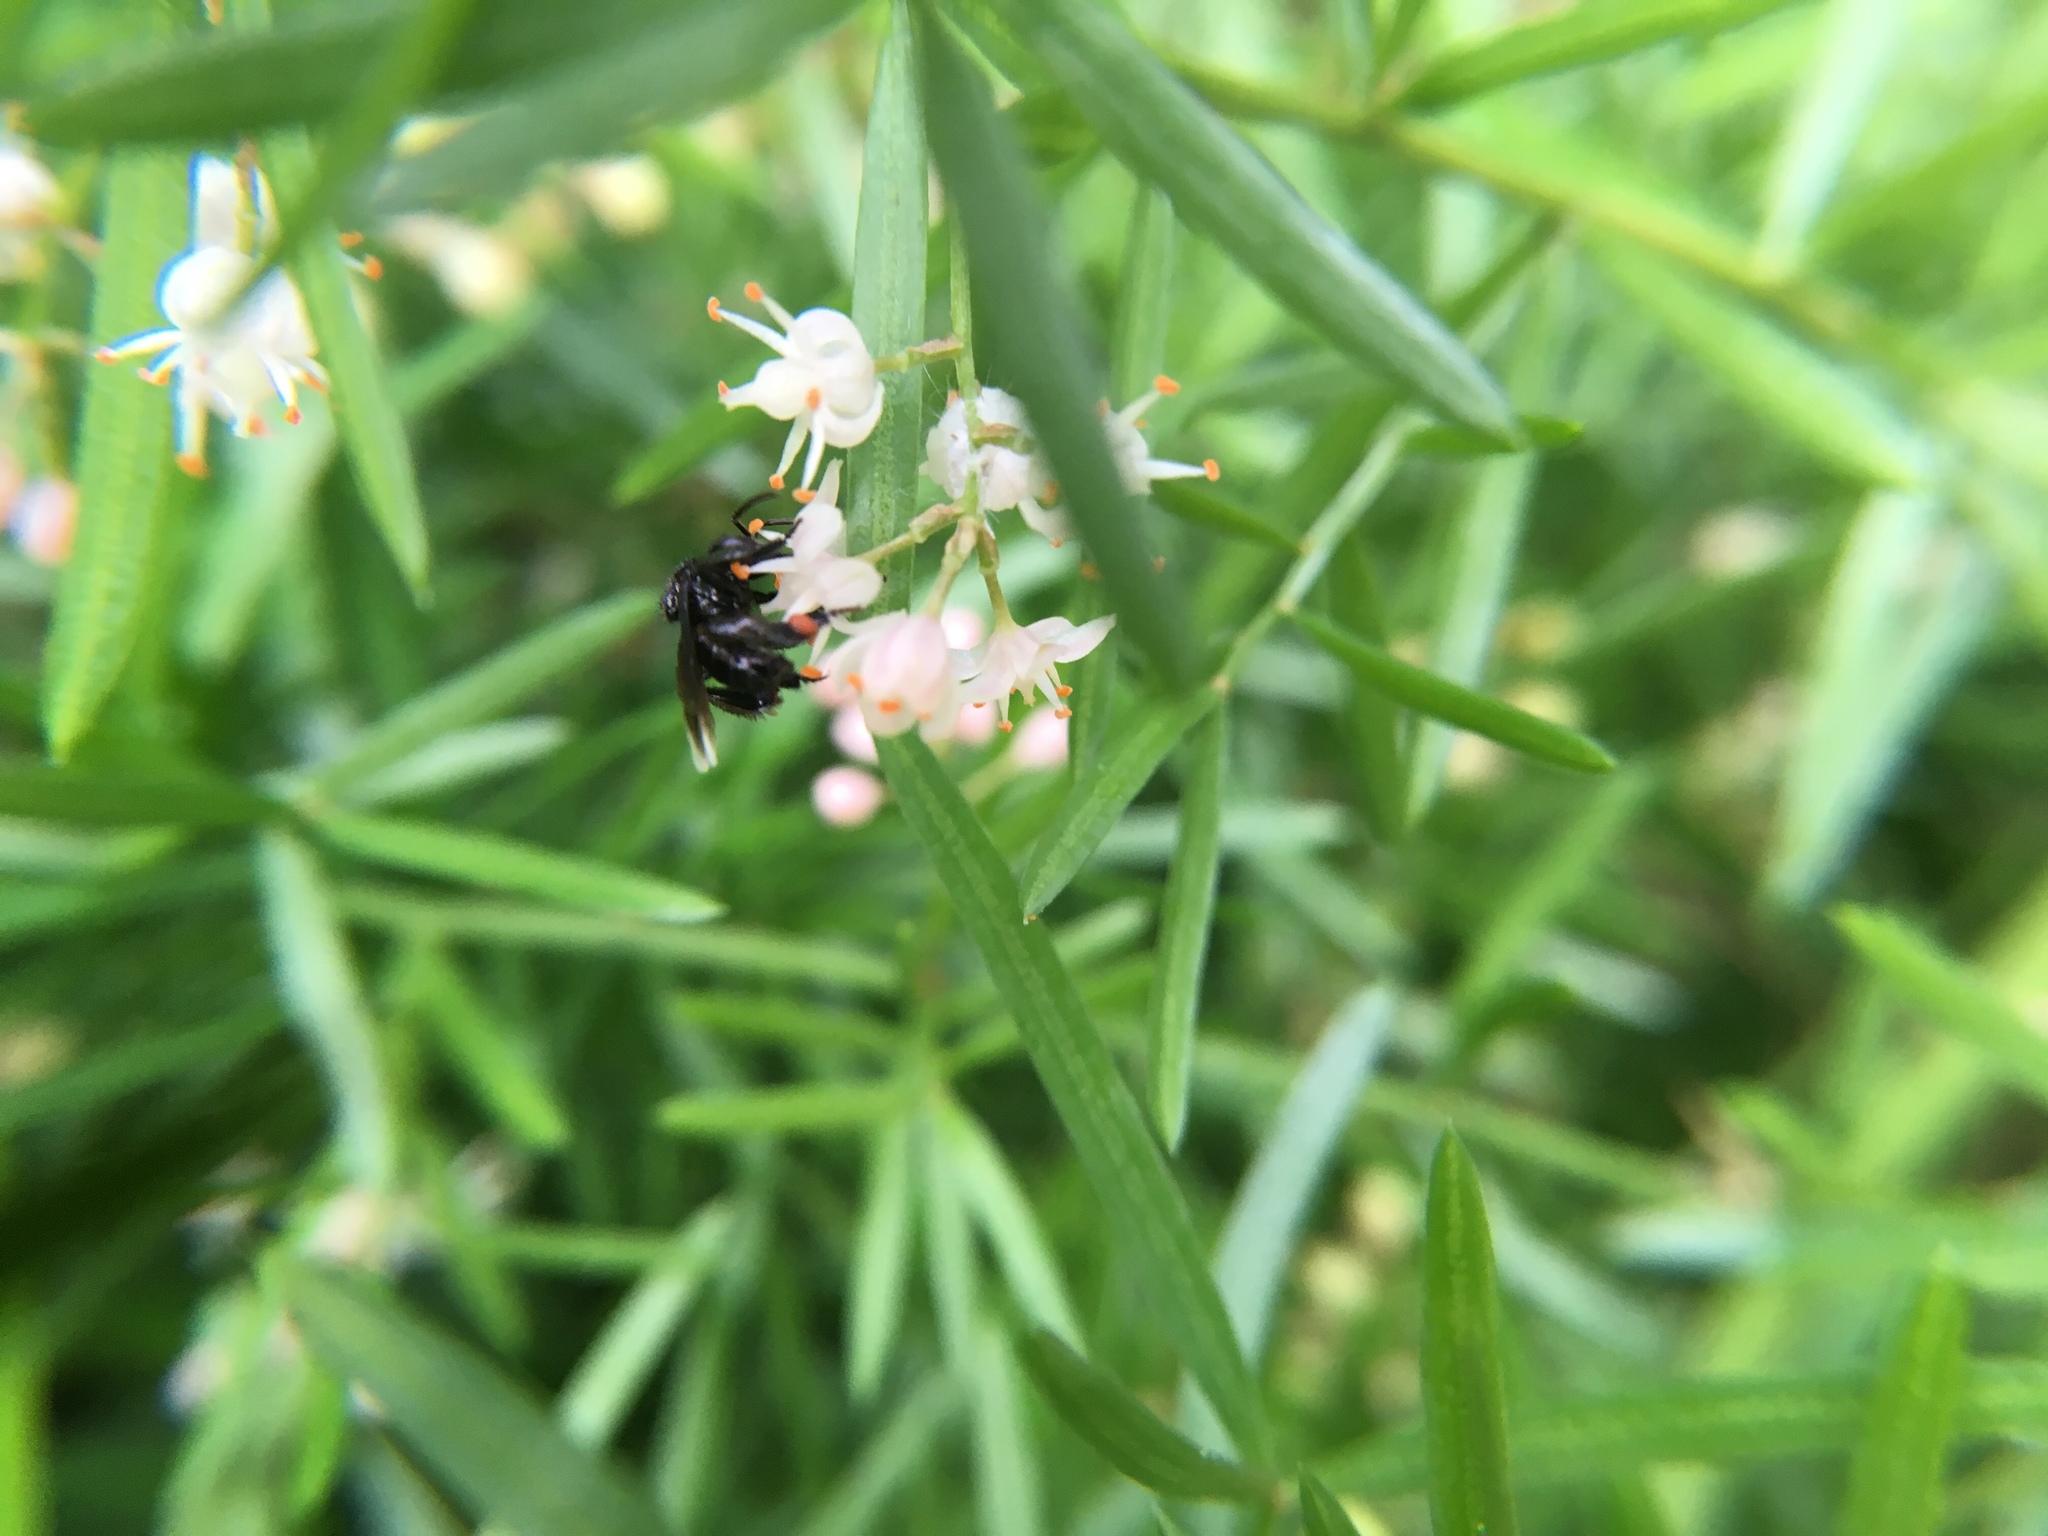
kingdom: Animalia
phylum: Arthropoda
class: Insecta
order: Hymenoptera
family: Apidae
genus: Frieseomelitta
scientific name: Frieseomelitta nigra
